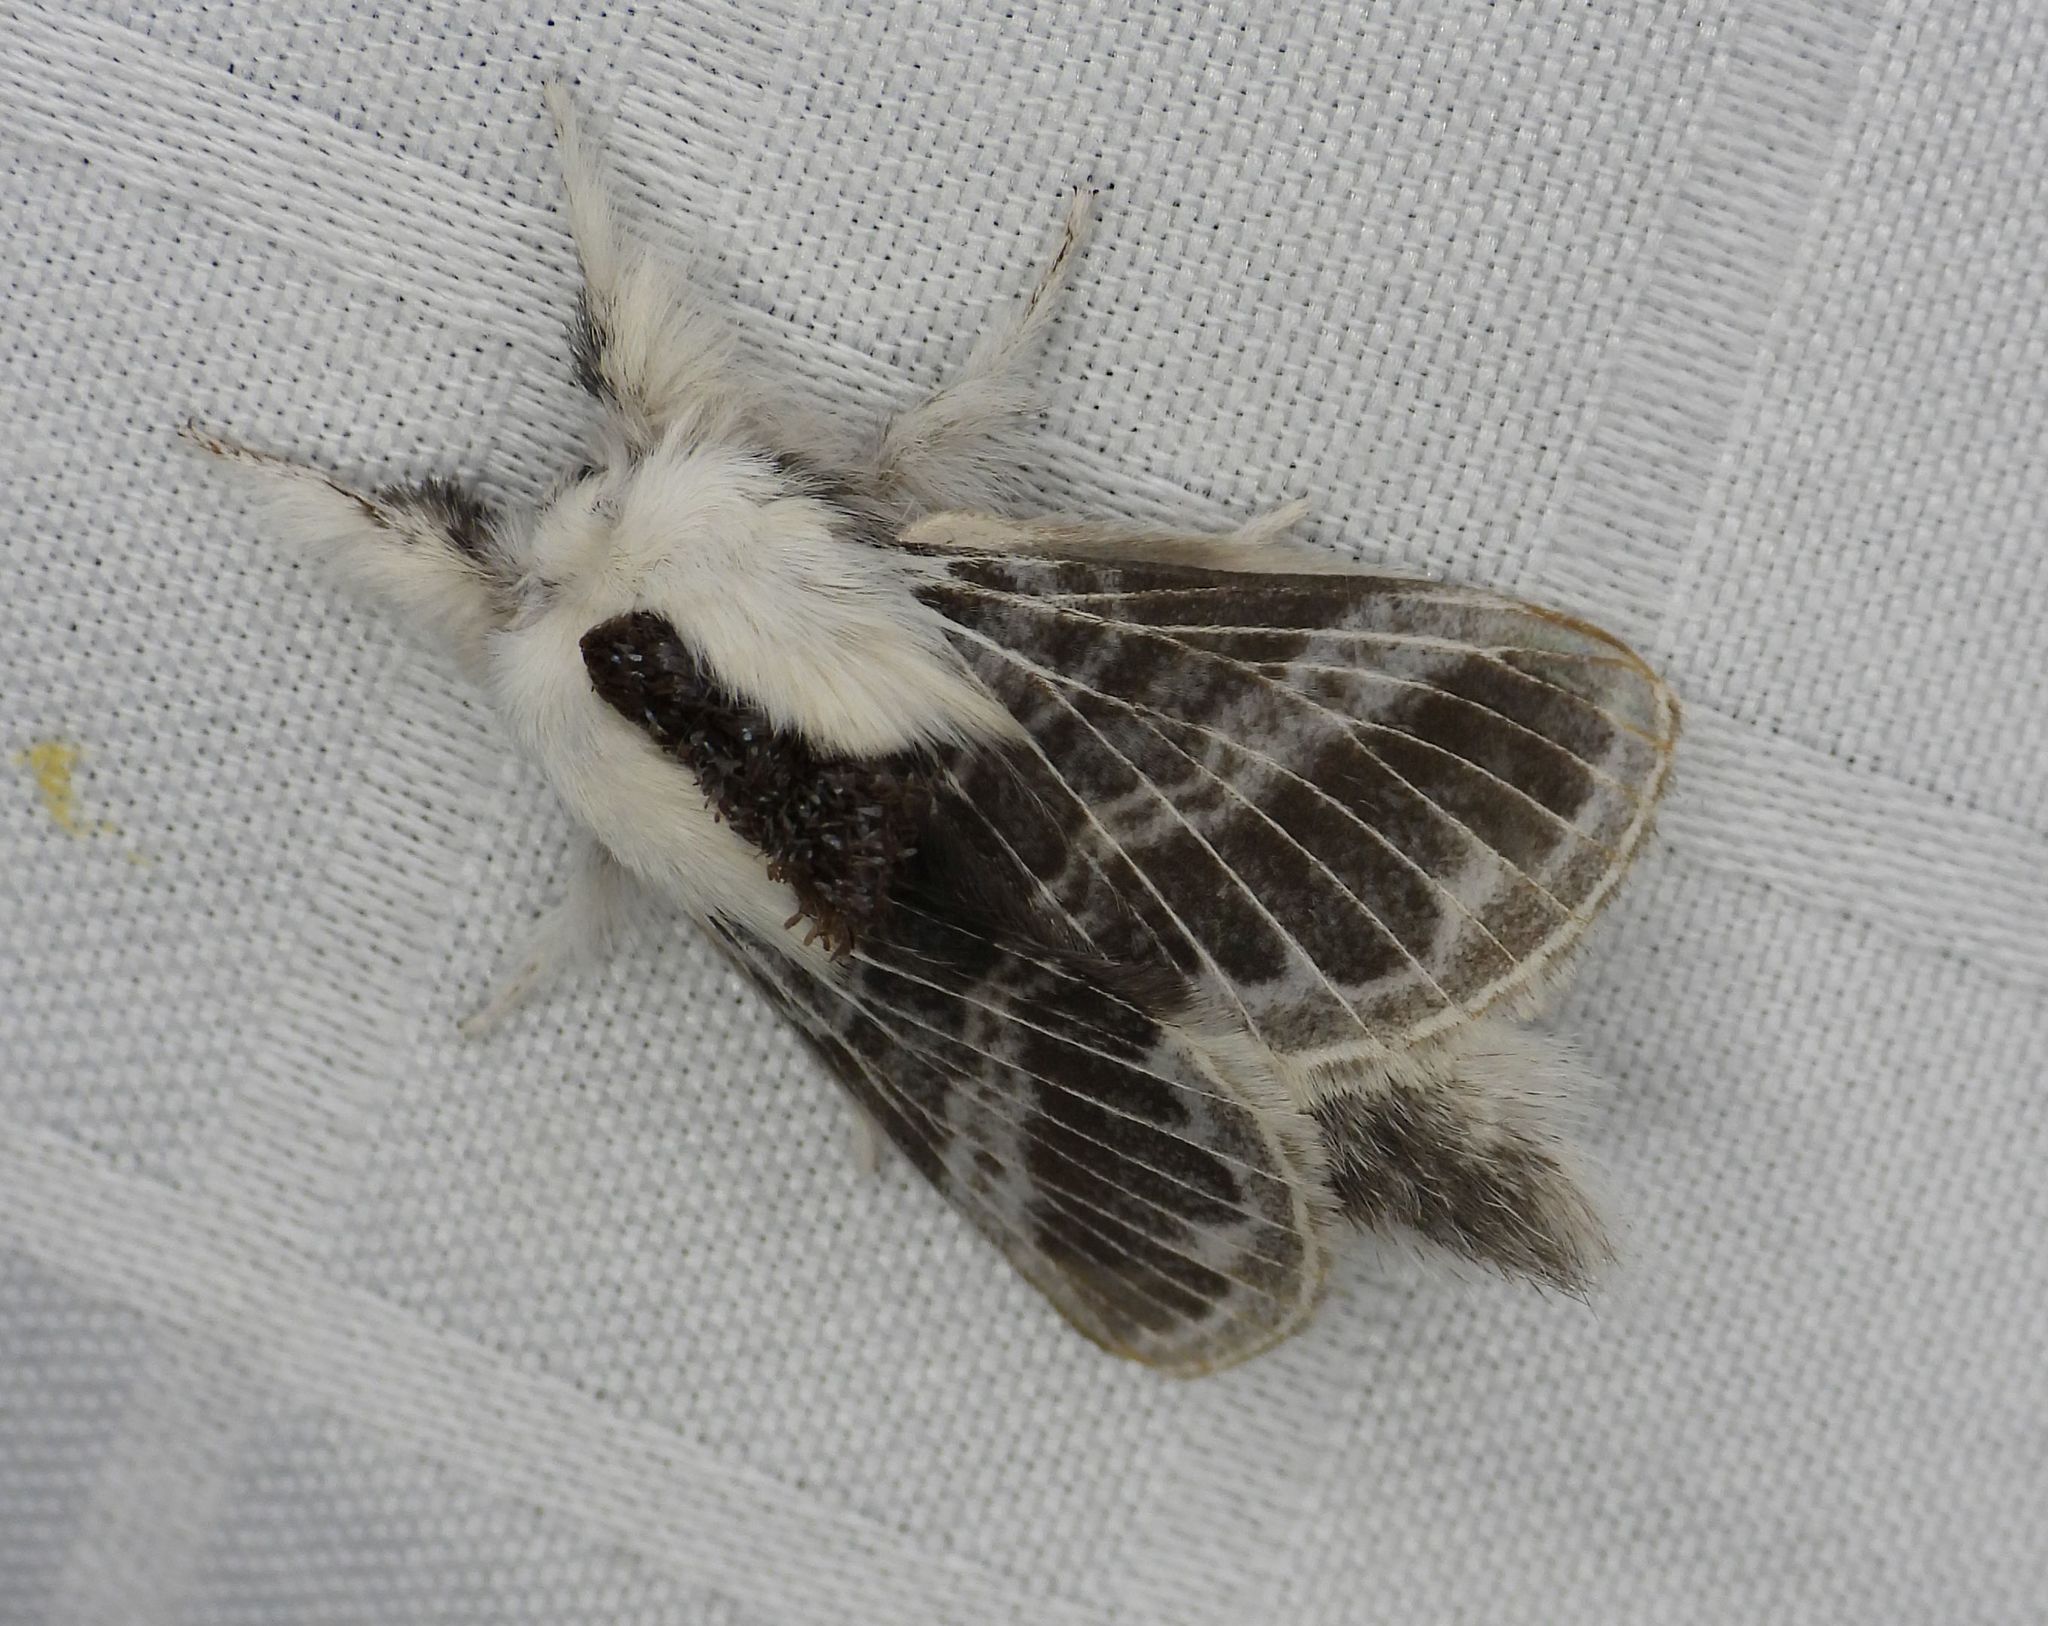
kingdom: Animalia
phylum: Arthropoda
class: Insecta
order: Lepidoptera
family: Lasiocampidae
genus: Tolype
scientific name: Tolype velleda
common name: Large tolype moth
